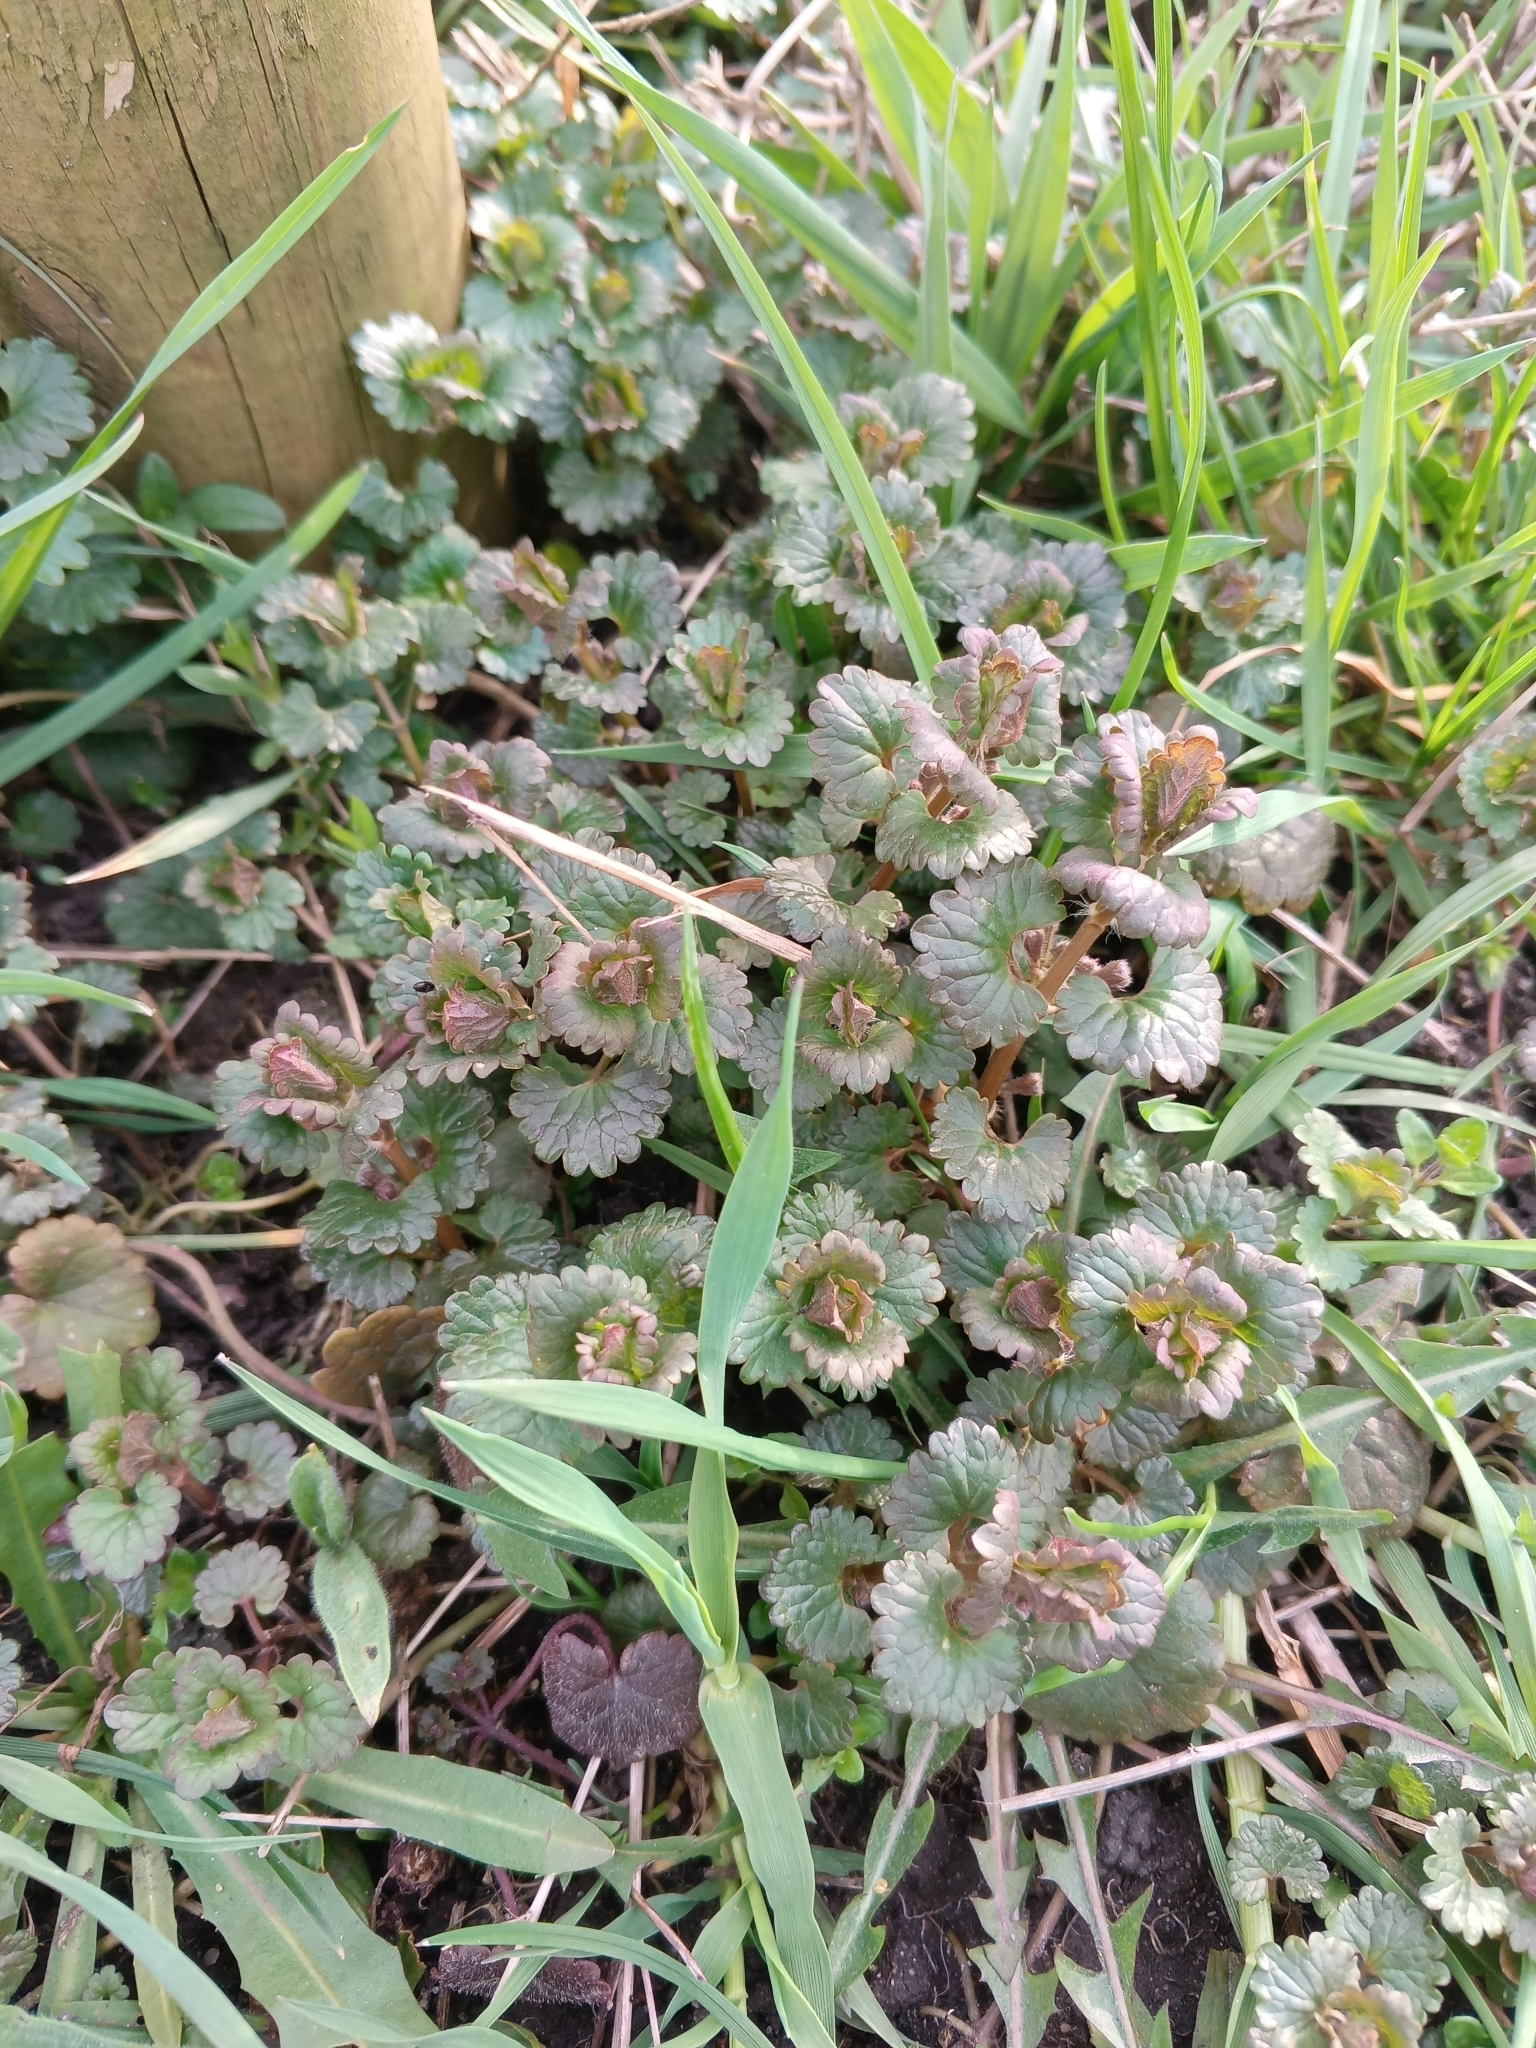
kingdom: Plantae
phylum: Tracheophyta
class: Magnoliopsida
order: Lamiales
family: Lamiaceae
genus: Glechoma
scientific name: Glechoma hederacea
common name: Ground ivy
